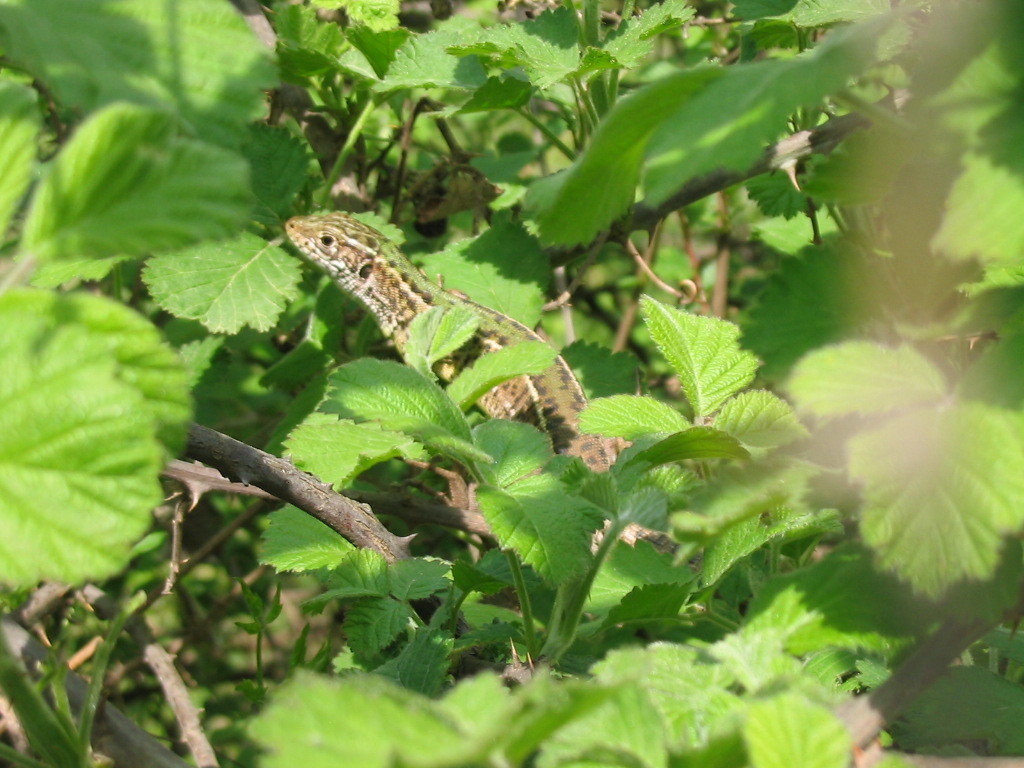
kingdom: Animalia
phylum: Chordata
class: Squamata
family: Lacertidae
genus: Lacerta
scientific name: Lacerta viridis
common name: European green lizard
